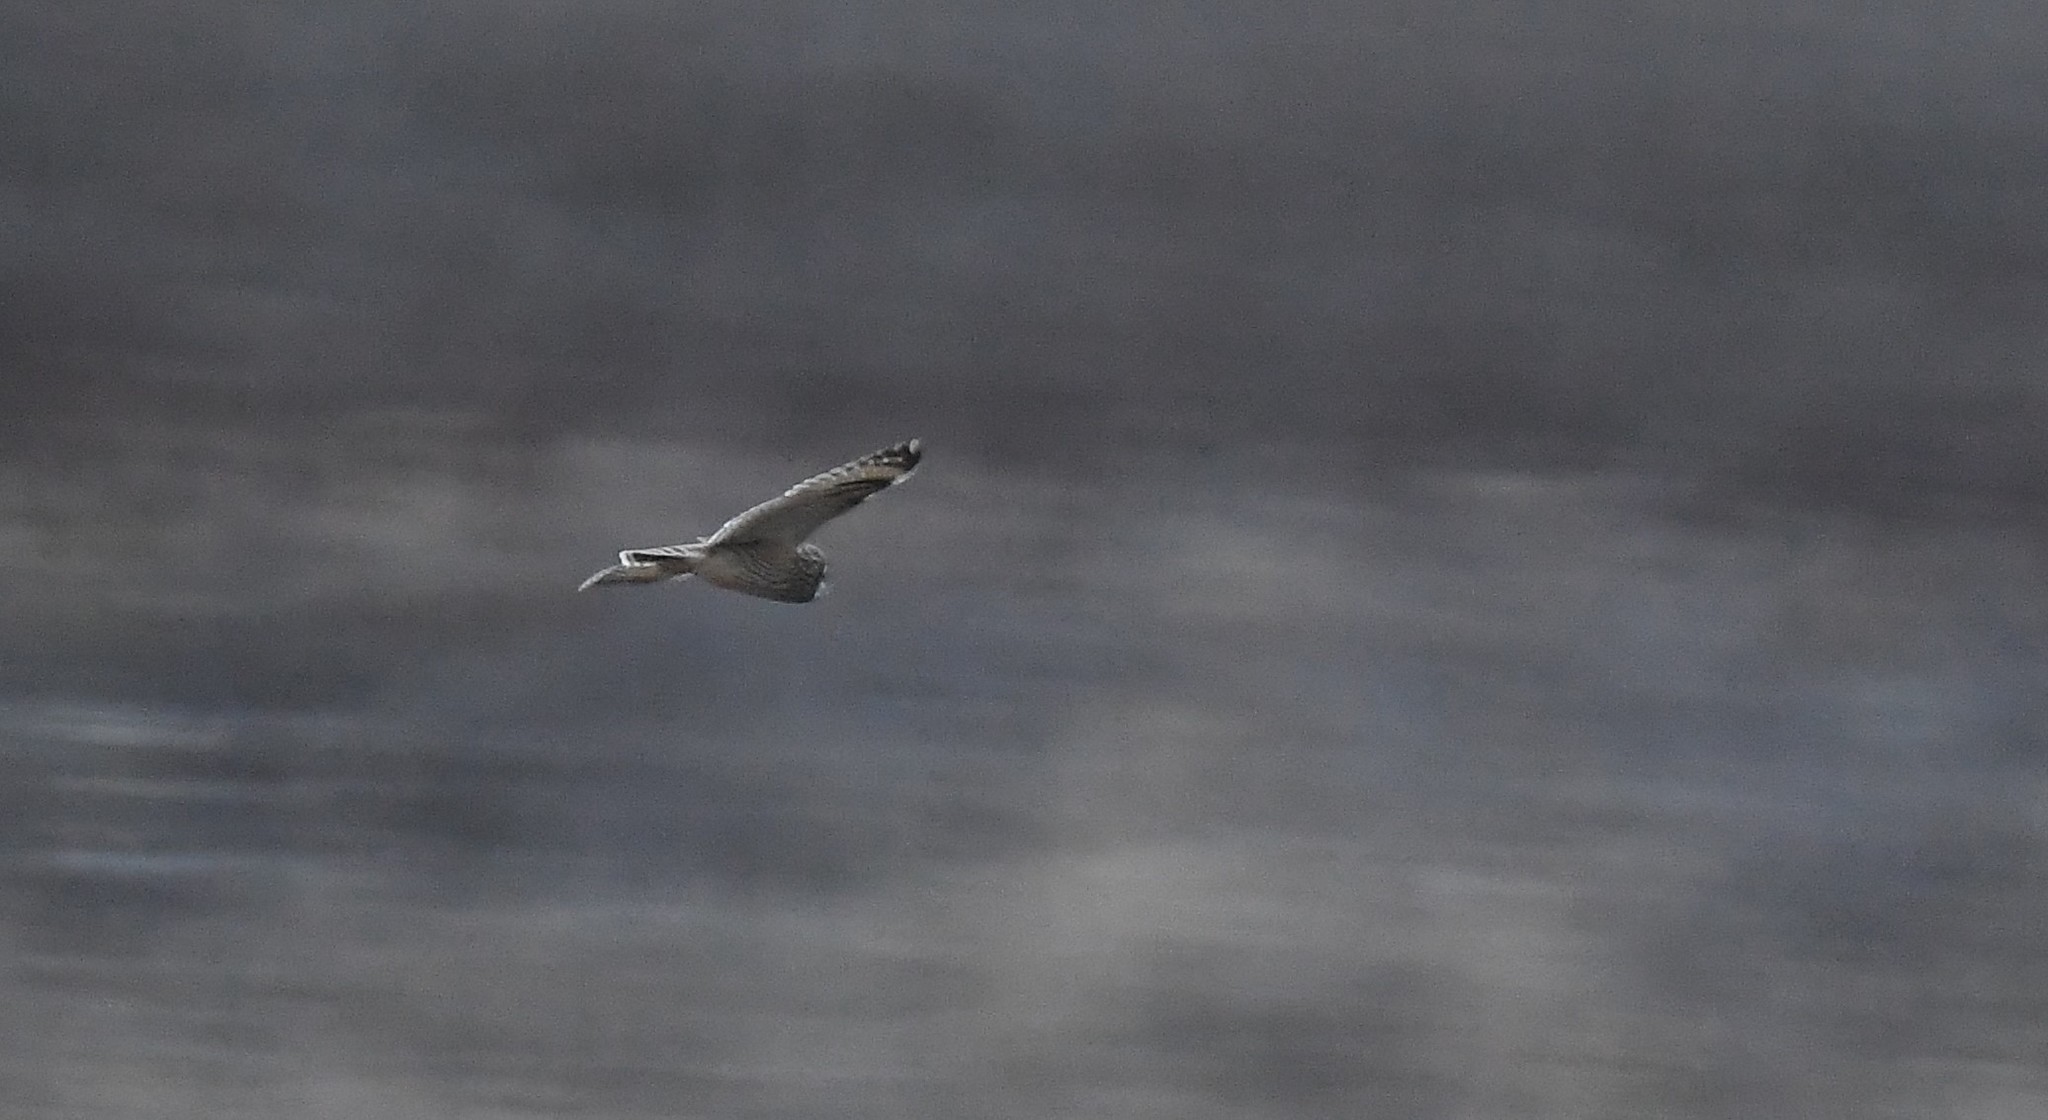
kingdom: Animalia
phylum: Chordata
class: Aves
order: Strigiformes
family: Strigidae
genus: Asio
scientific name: Asio flammeus
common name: Short-eared owl
